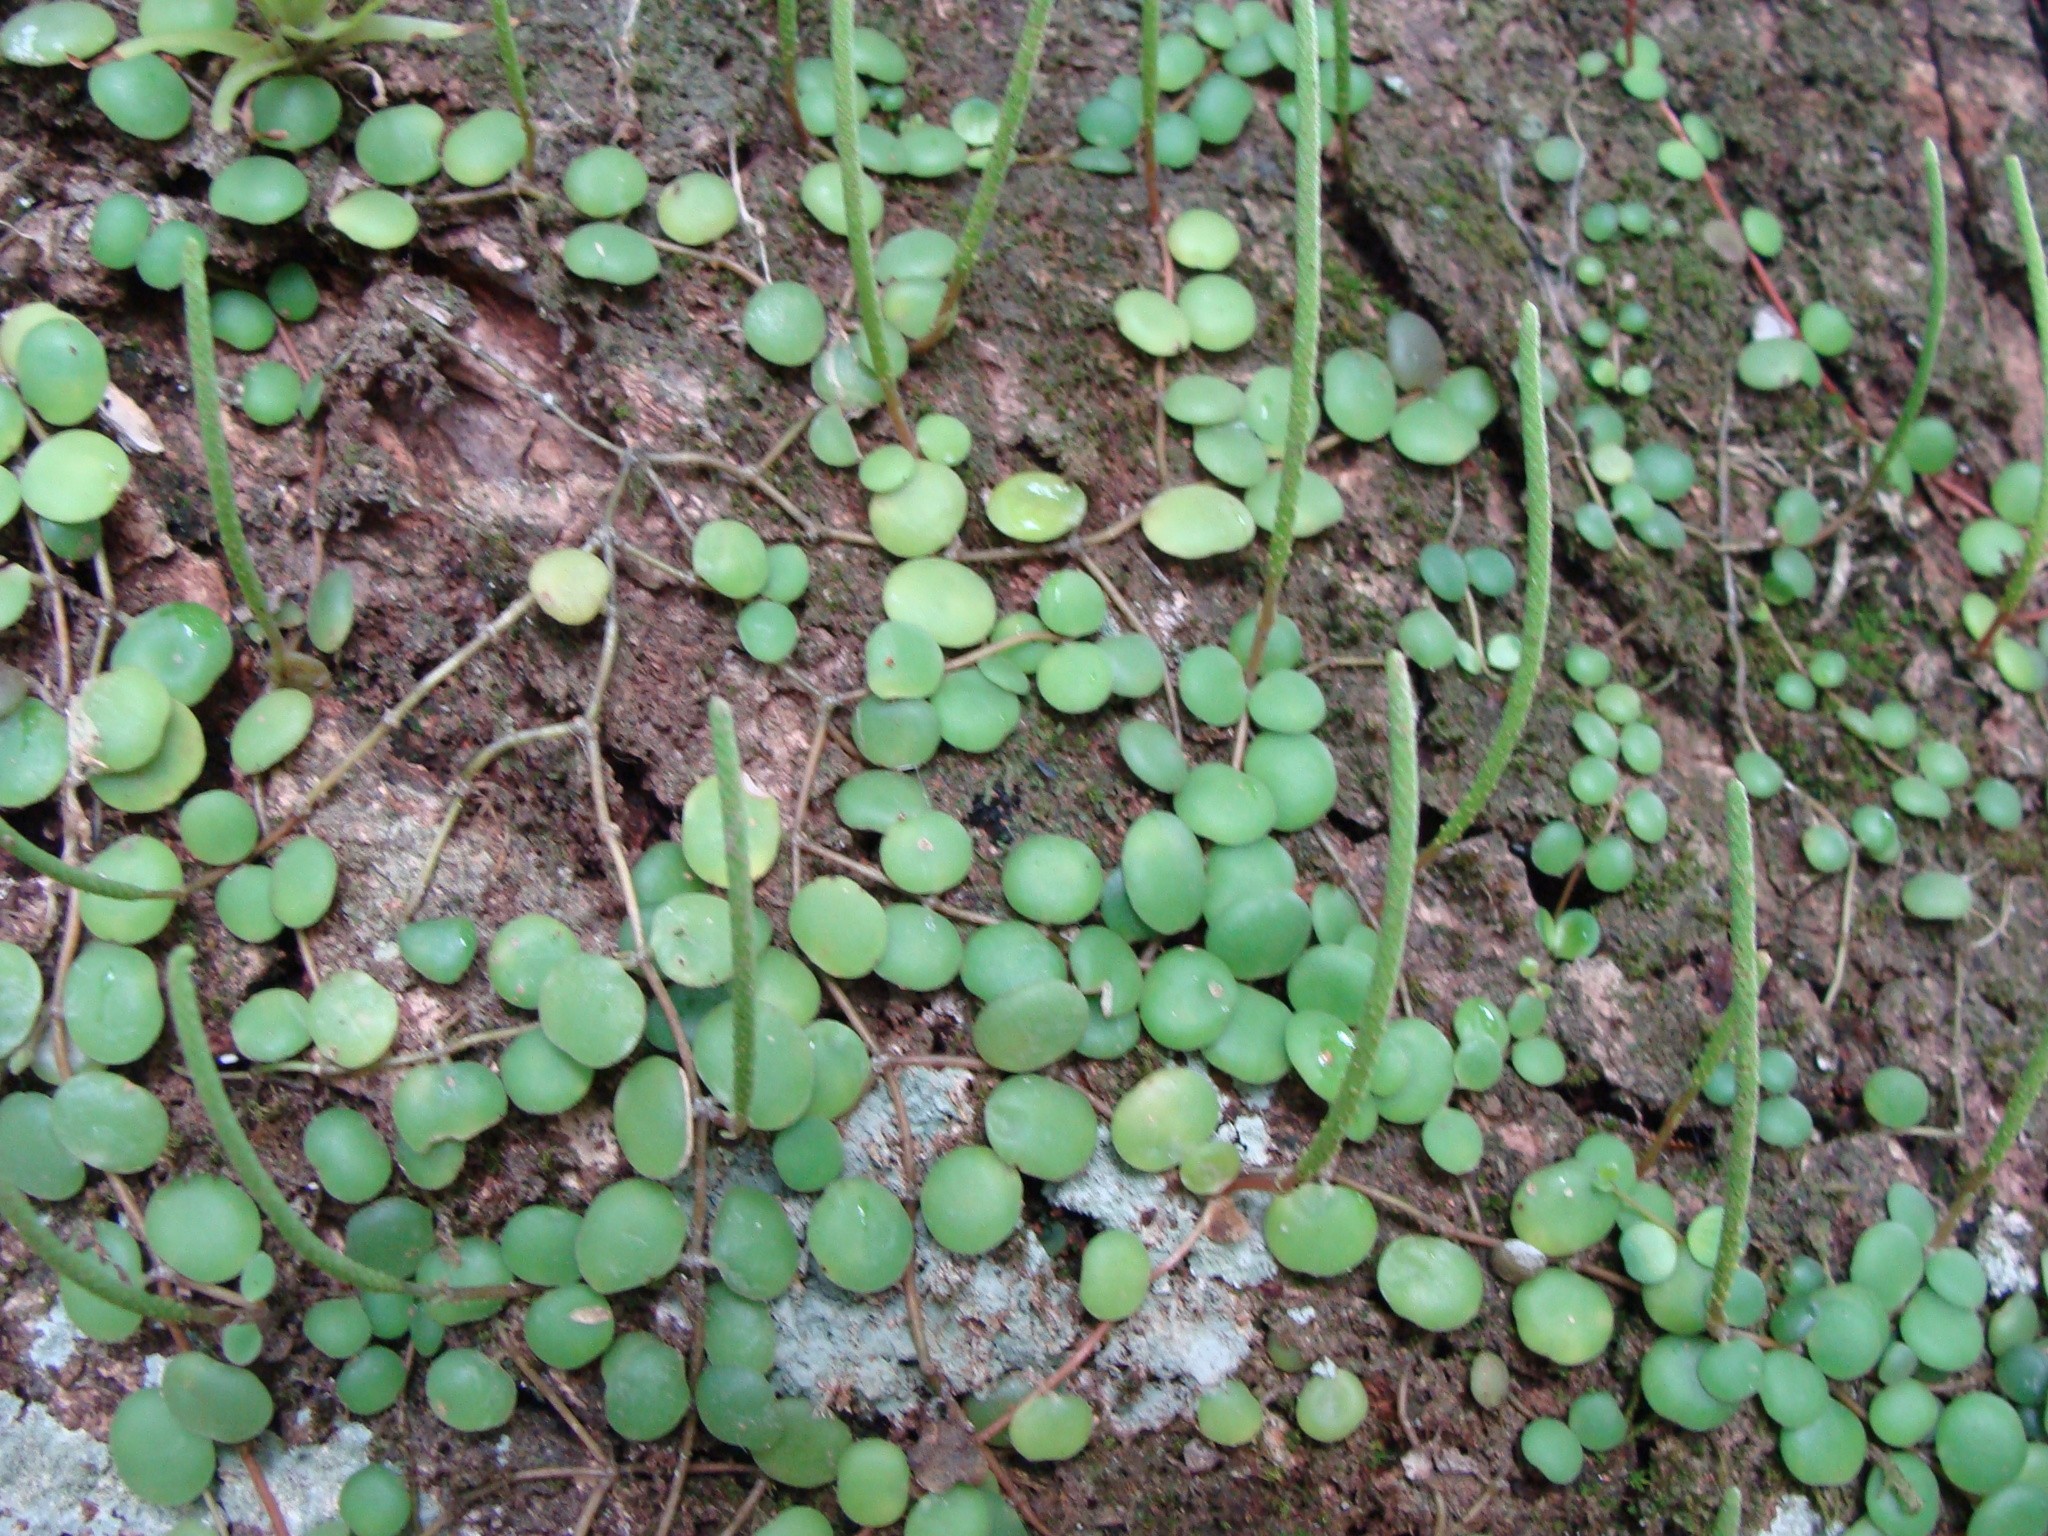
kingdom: Plantae
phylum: Tracheophyta
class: Magnoliopsida
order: Piperales
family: Piperaceae
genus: Peperomia
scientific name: Peperomia cyclophylla
